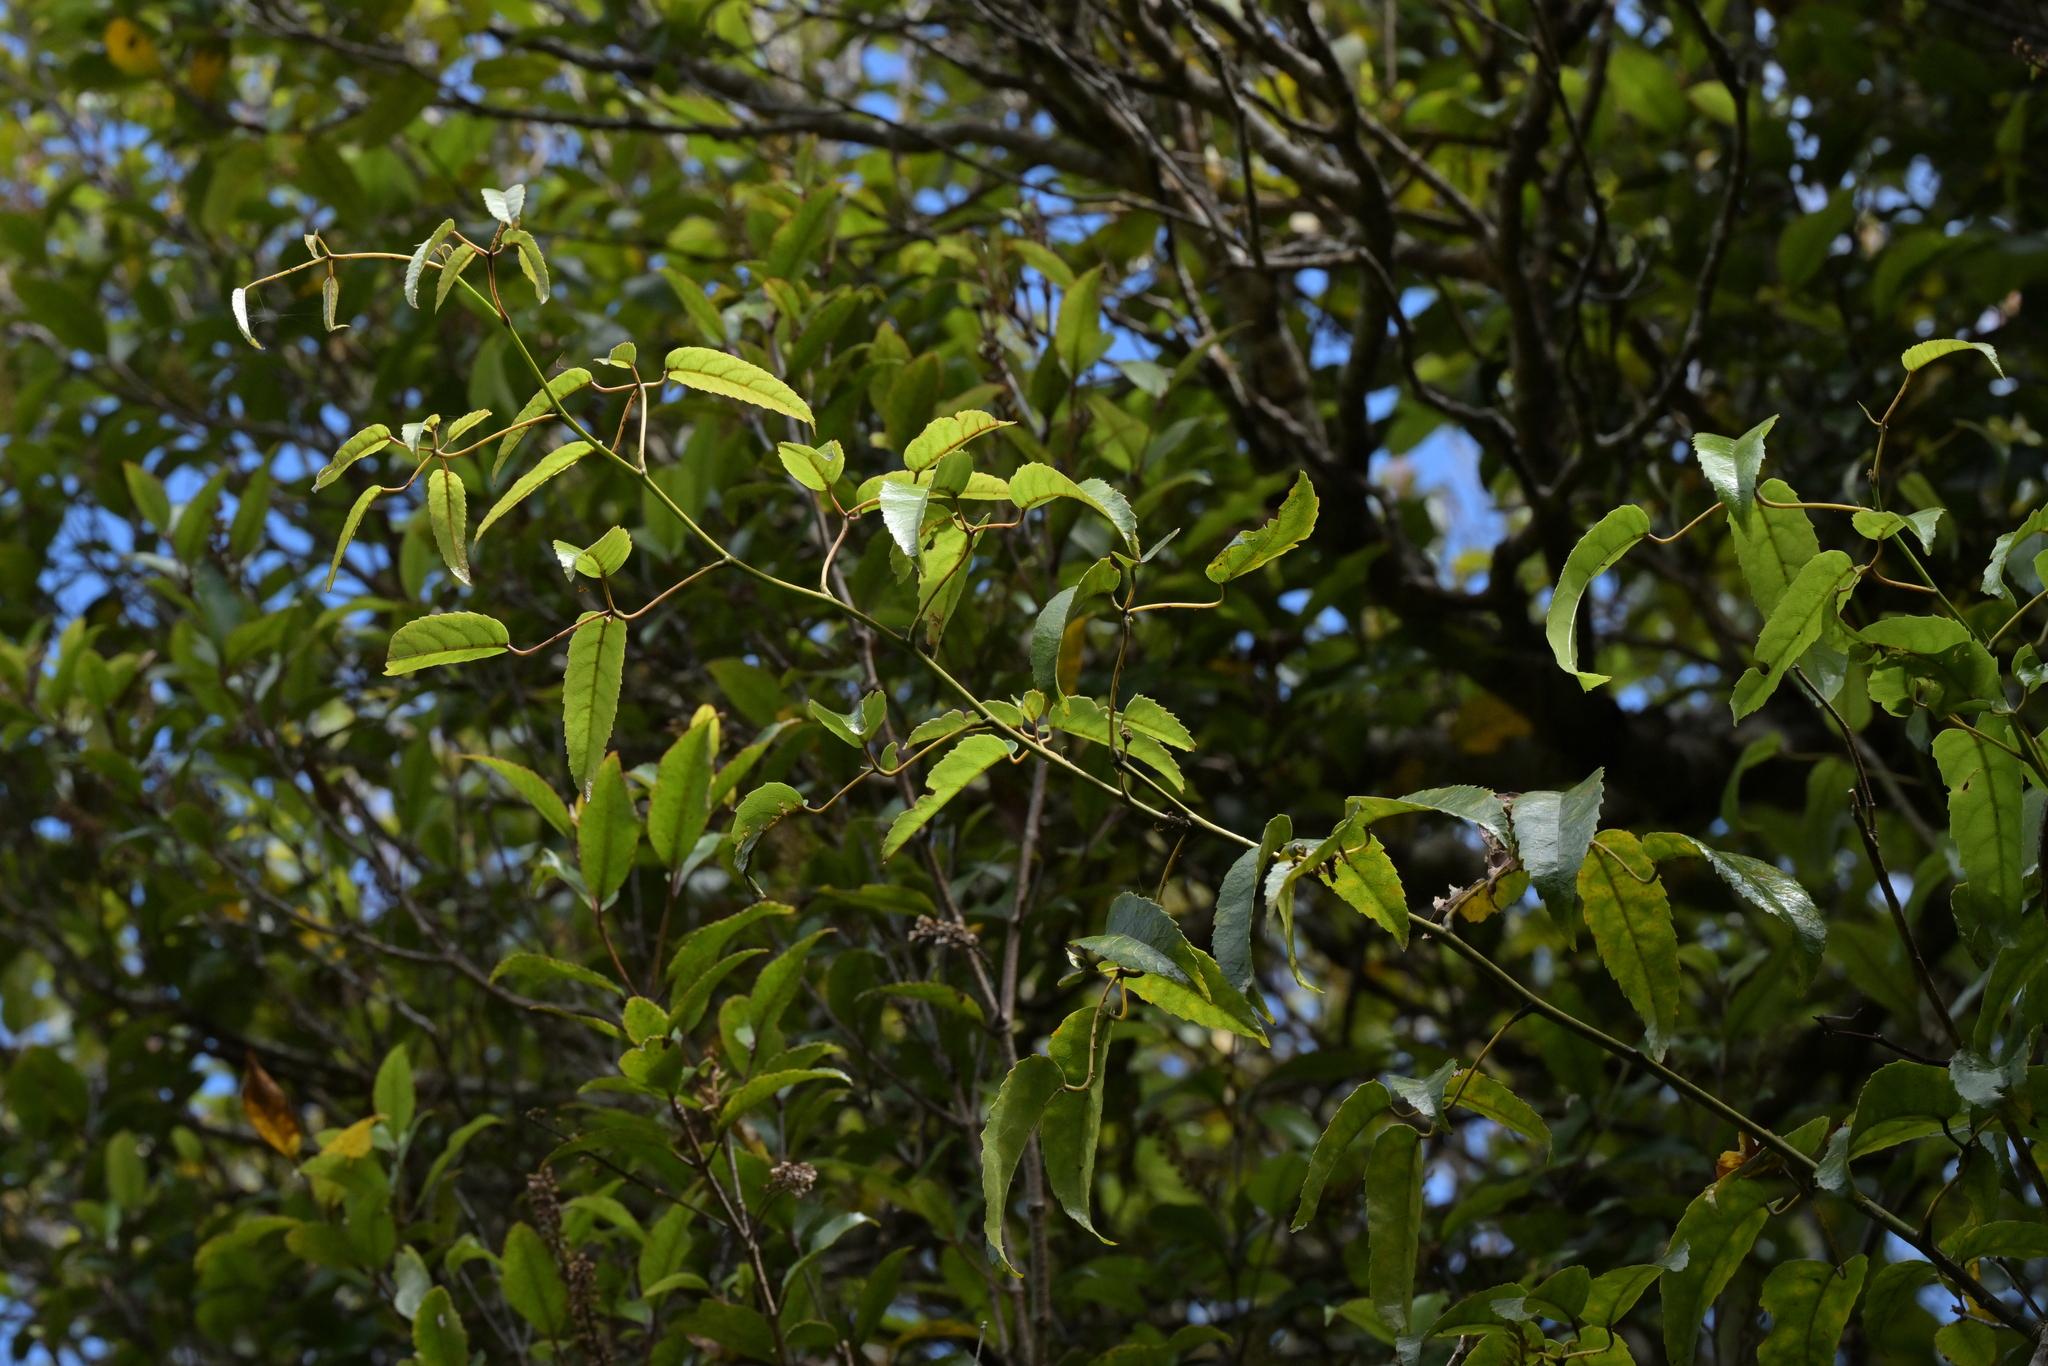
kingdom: Plantae
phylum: Tracheophyta
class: Magnoliopsida
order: Rosales
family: Rosaceae
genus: Rubus
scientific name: Rubus cissoides
